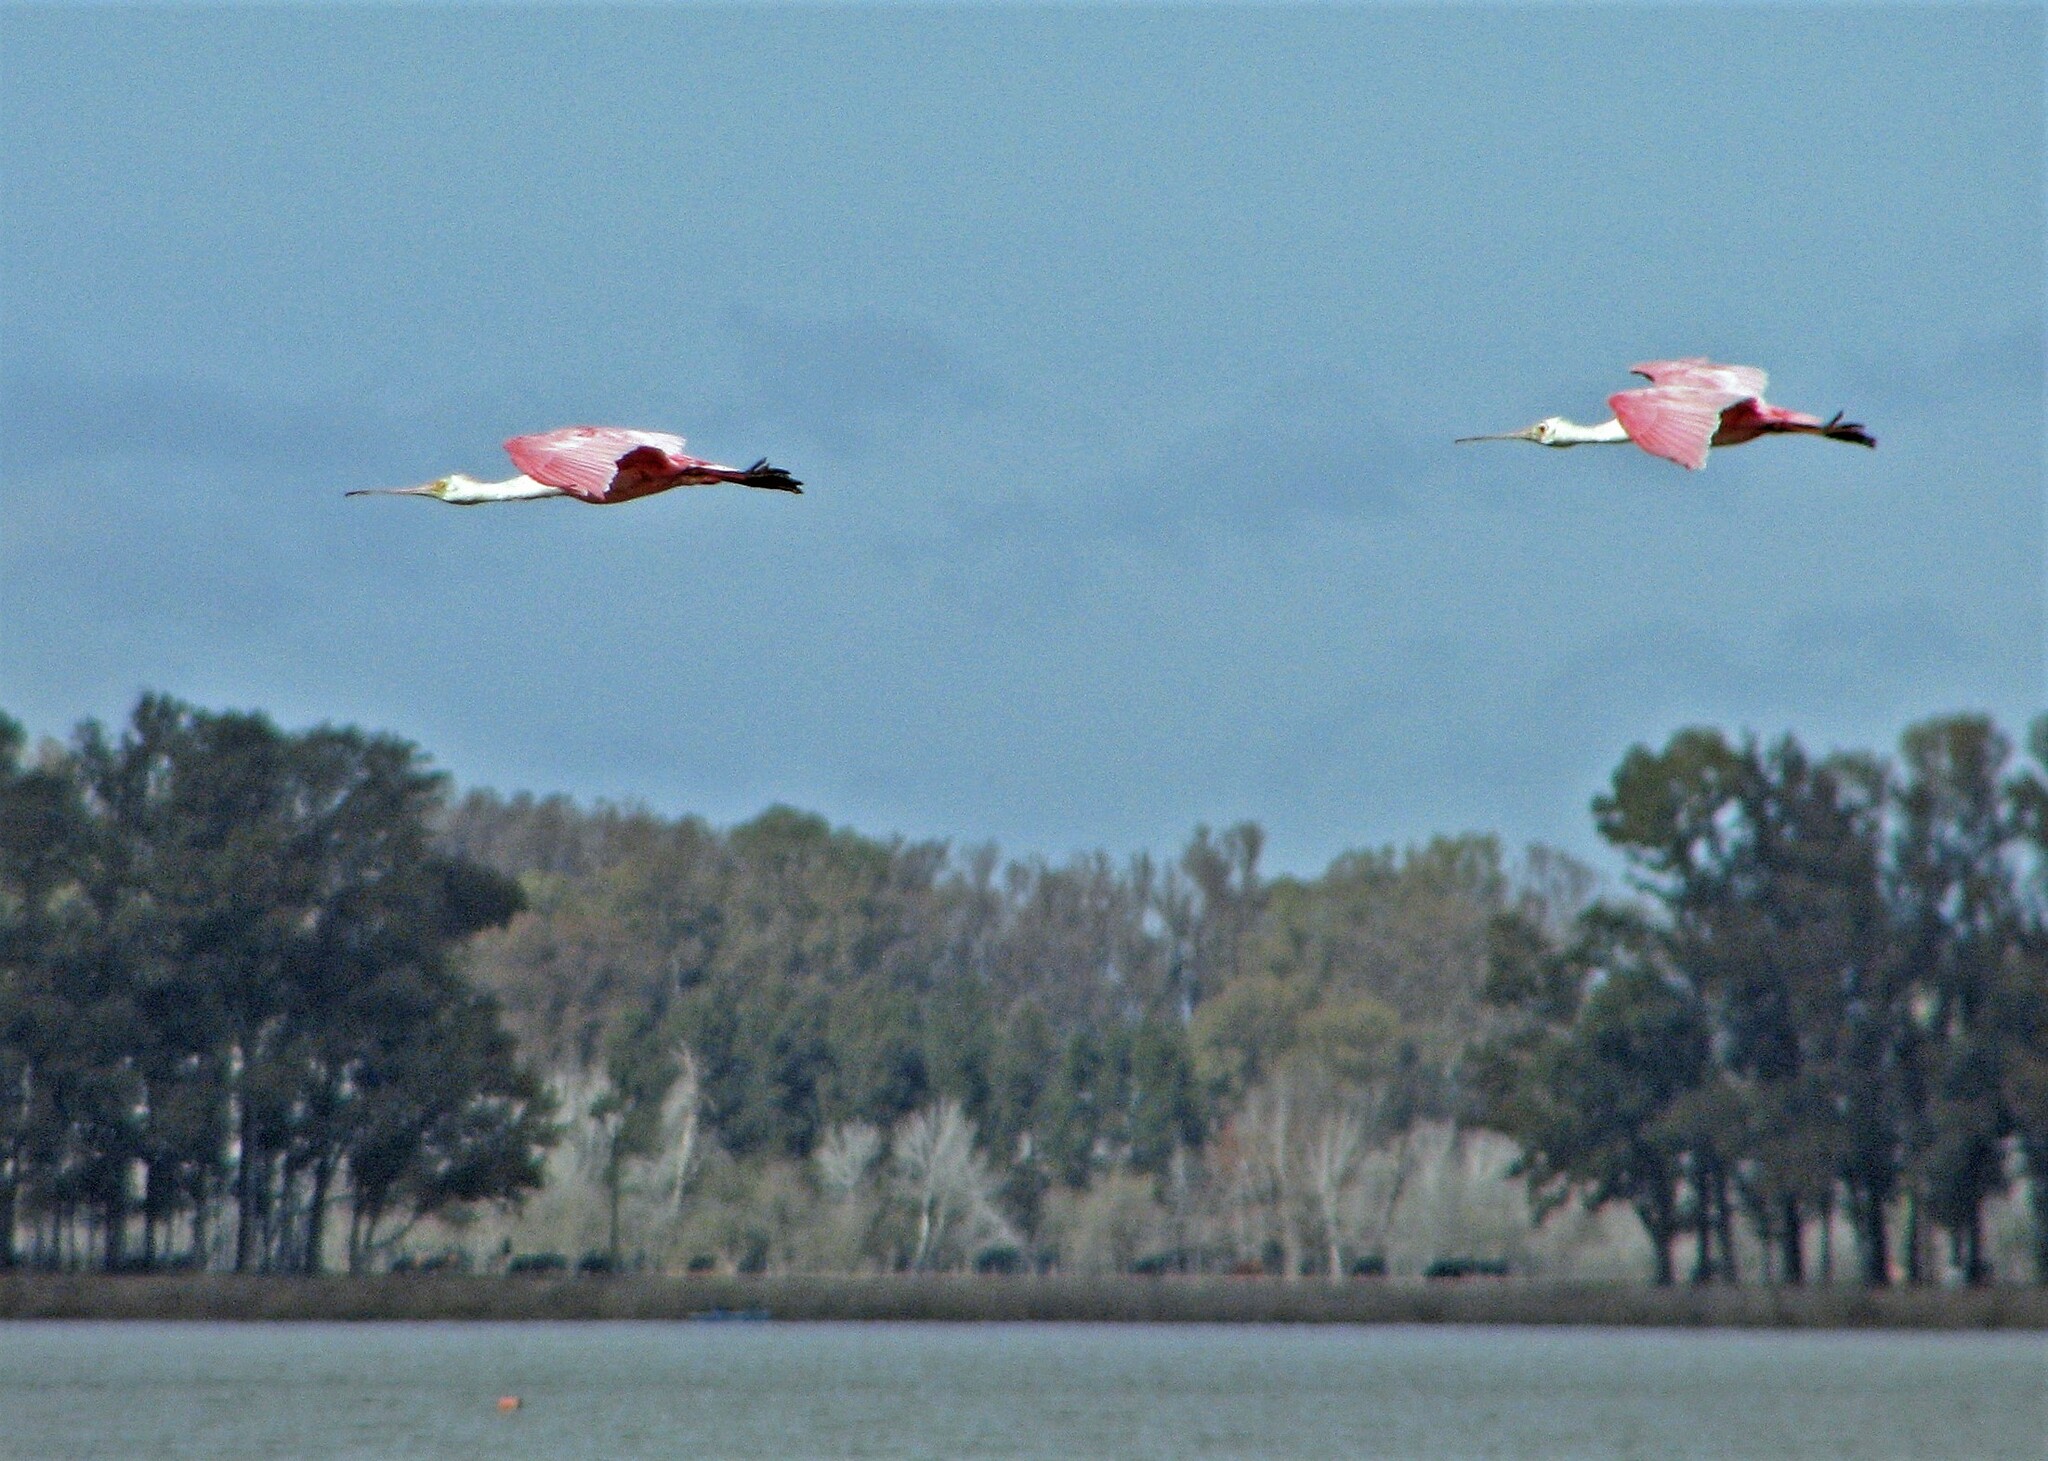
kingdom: Animalia
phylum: Chordata
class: Aves
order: Pelecaniformes
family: Threskiornithidae
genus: Platalea
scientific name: Platalea ajaja
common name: Roseate spoonbill
